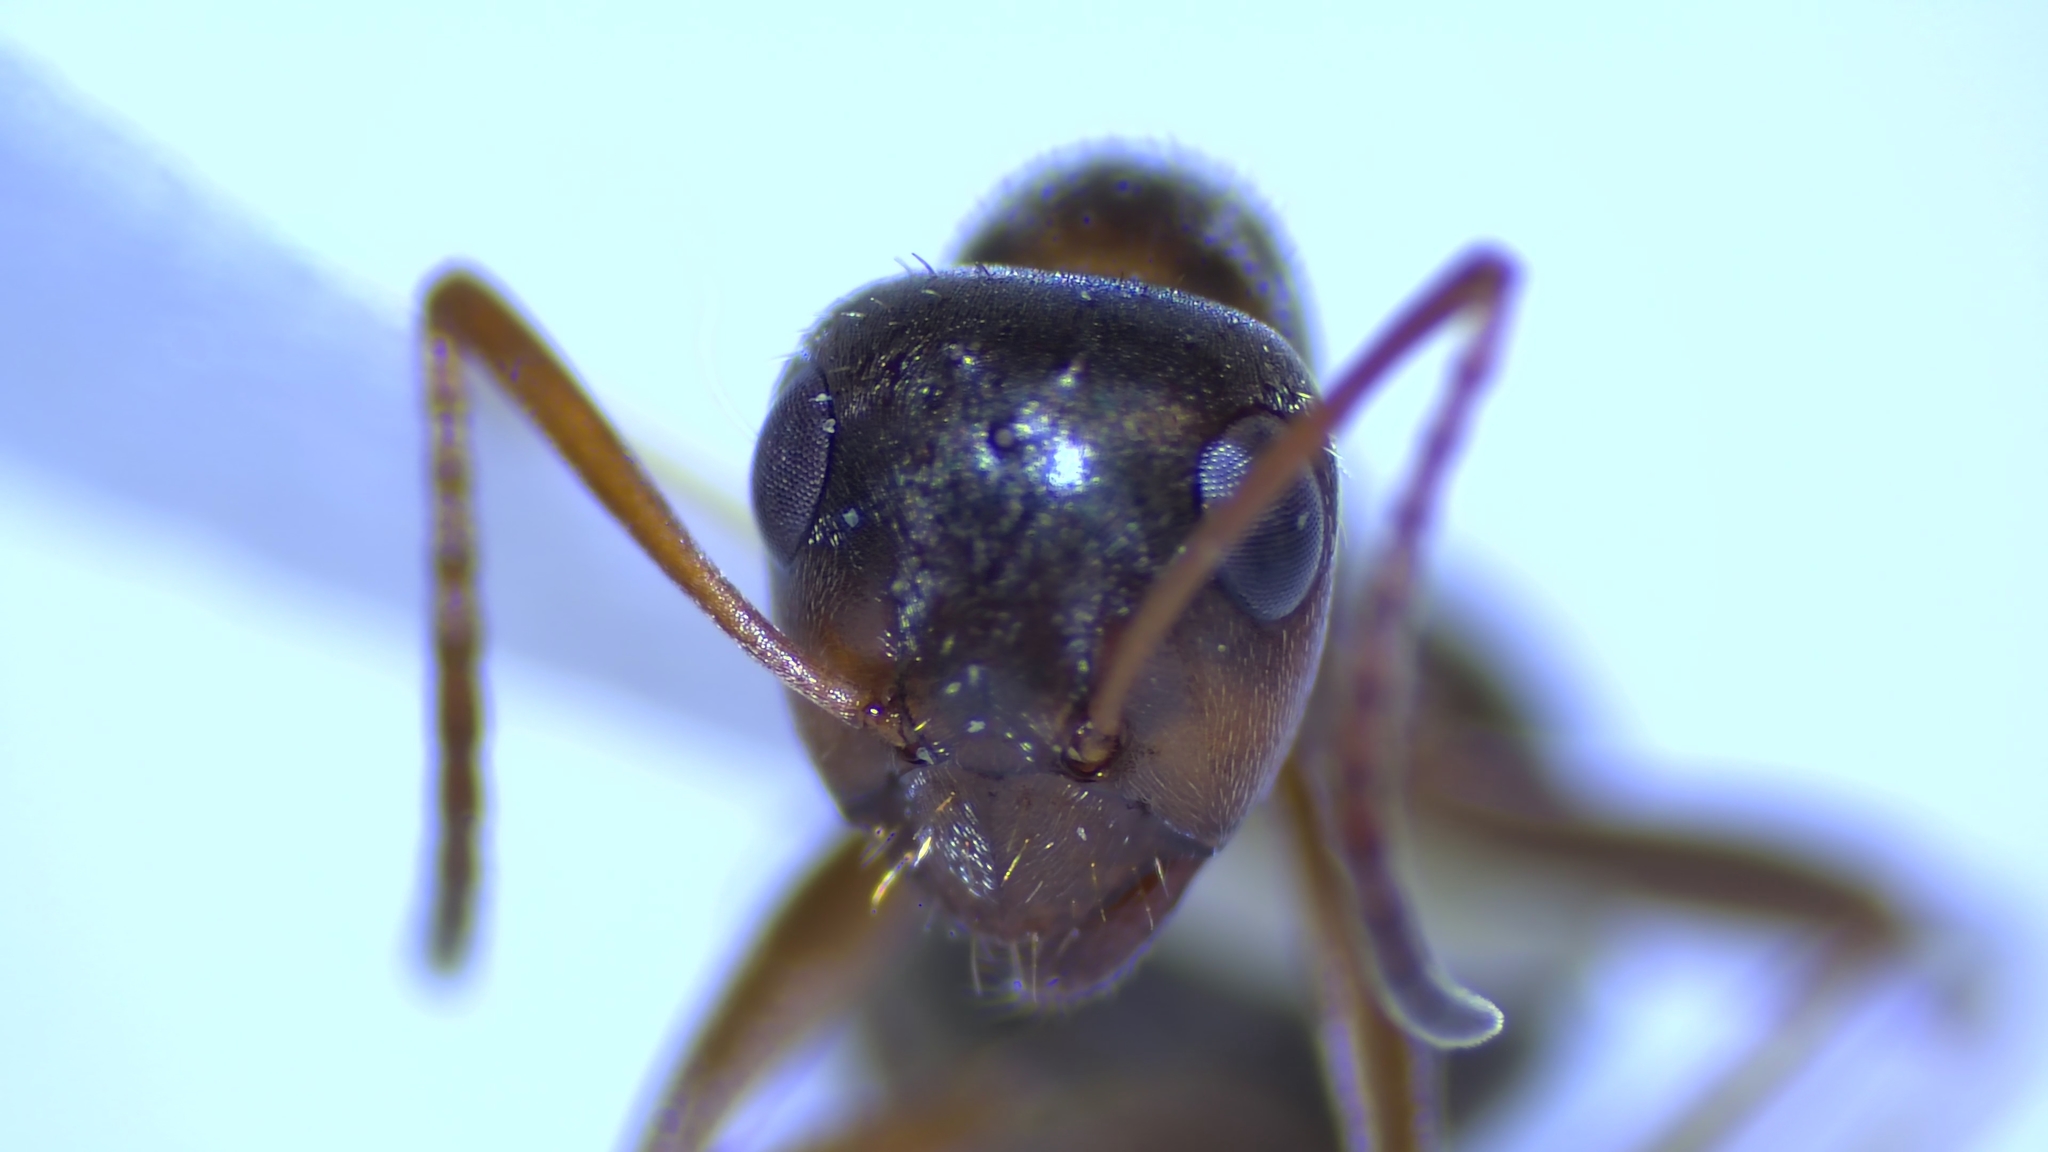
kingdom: Animalia
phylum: Arthropoda
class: Insecta
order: Hymenoptera
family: Formicidae
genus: Formica
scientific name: Formica montana
